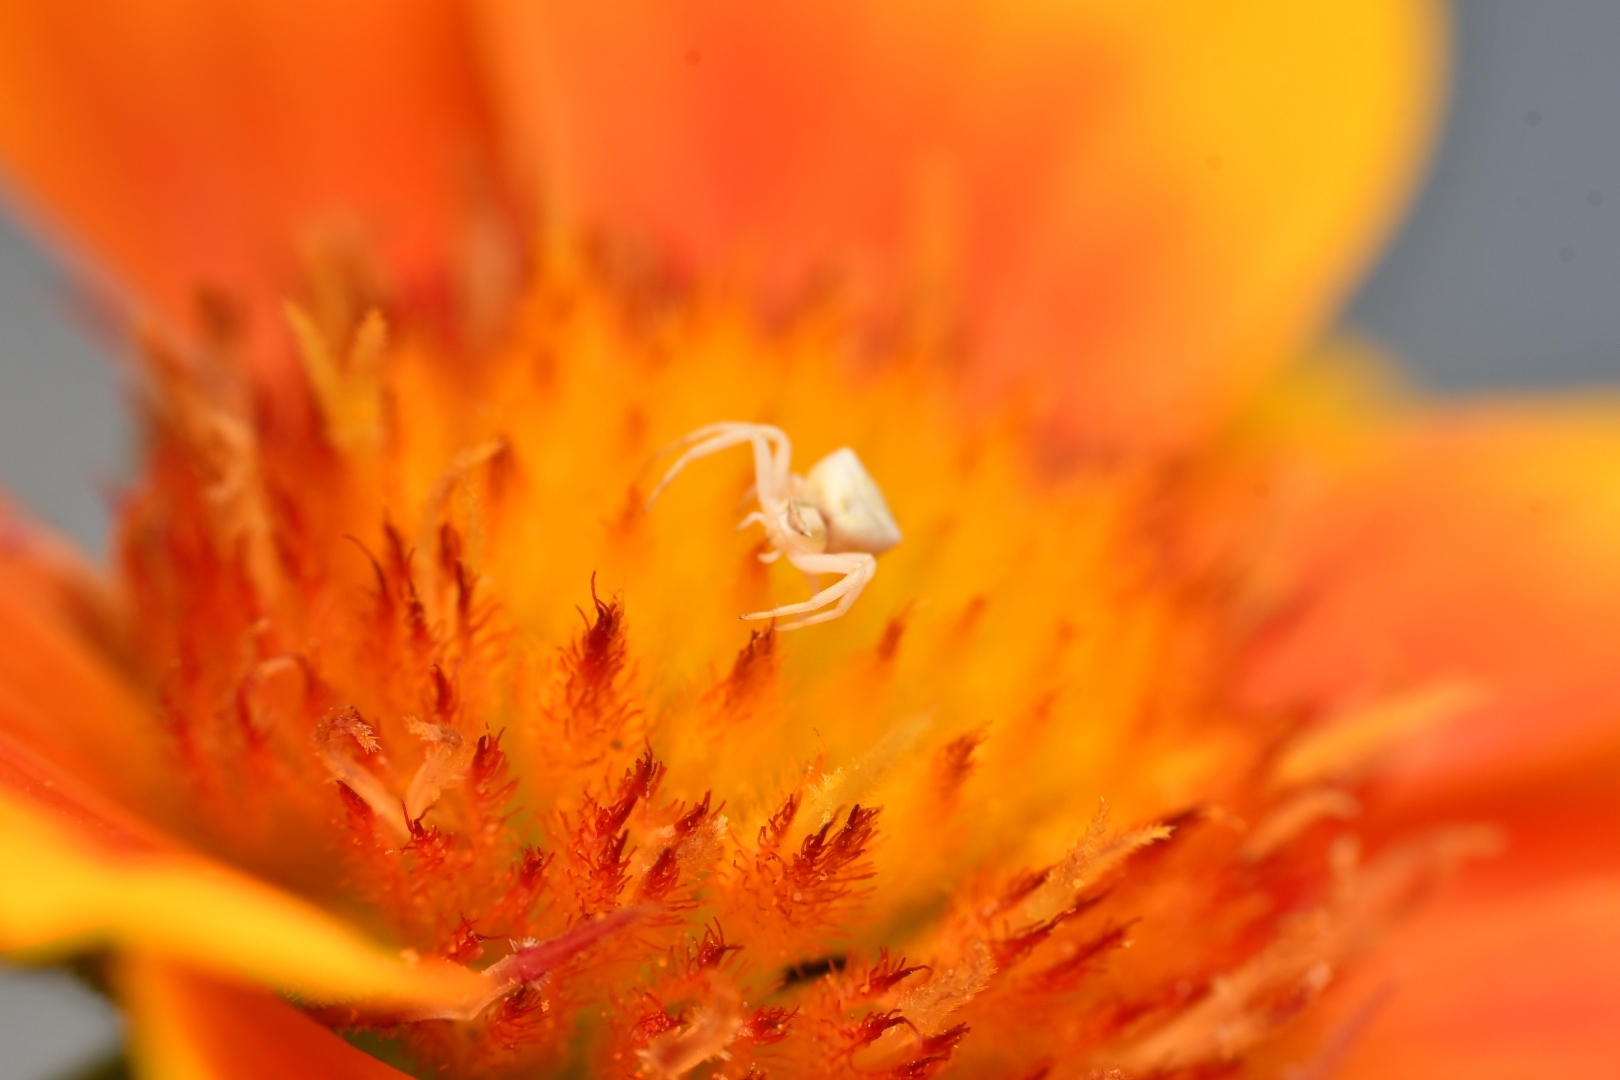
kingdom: Animalia
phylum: Arthropoda
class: Arachnida
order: Araneae
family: Thomisidae
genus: Thomisus
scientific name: Thomisus onustus
